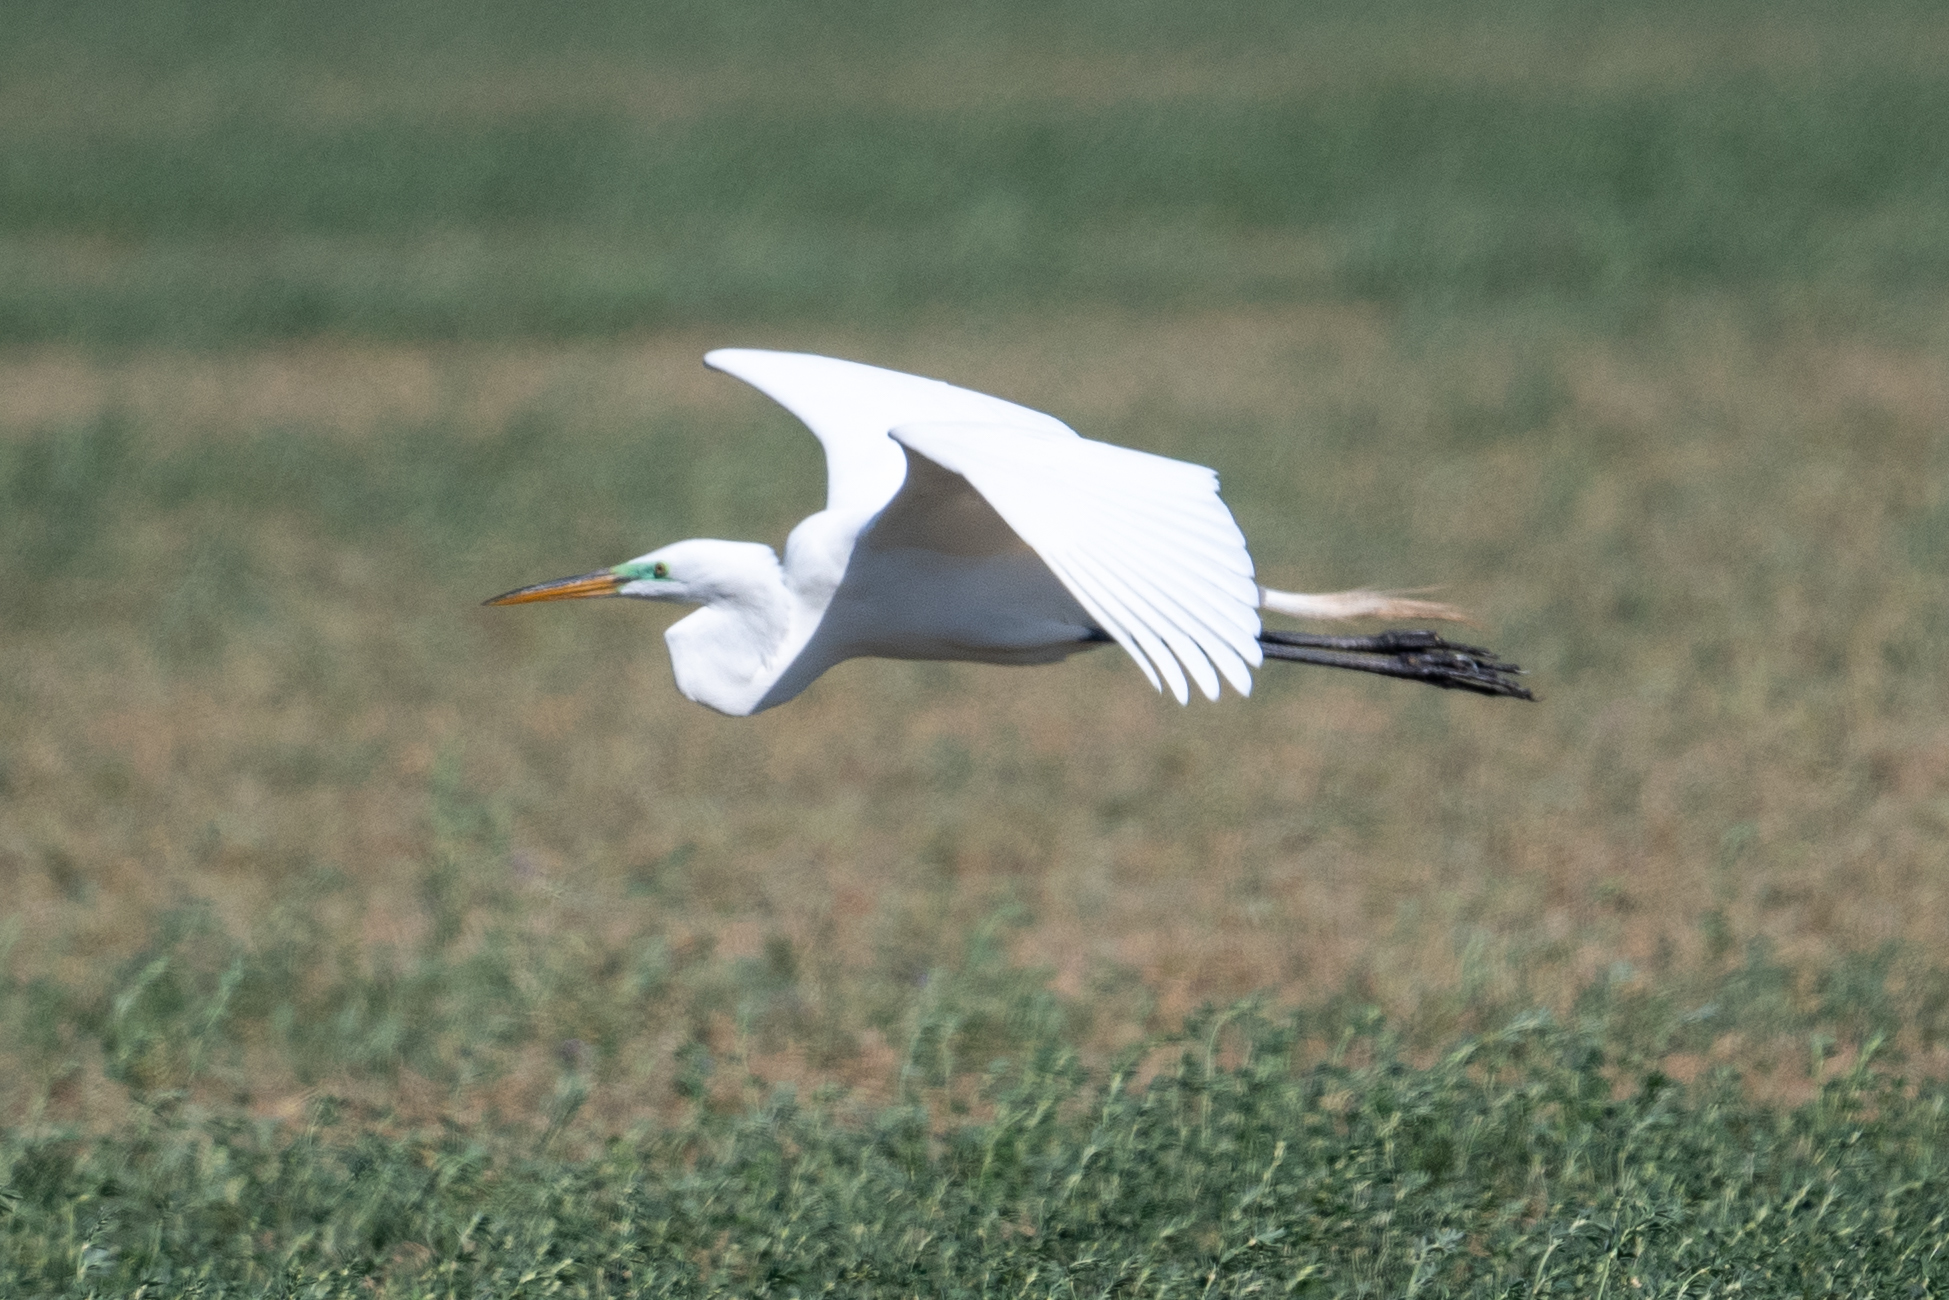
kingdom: Animalia
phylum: Chordata
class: Aves
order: Pelecaniformes
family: Ardeidae
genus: Ardea
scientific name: Ardea alba
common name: Great egret
